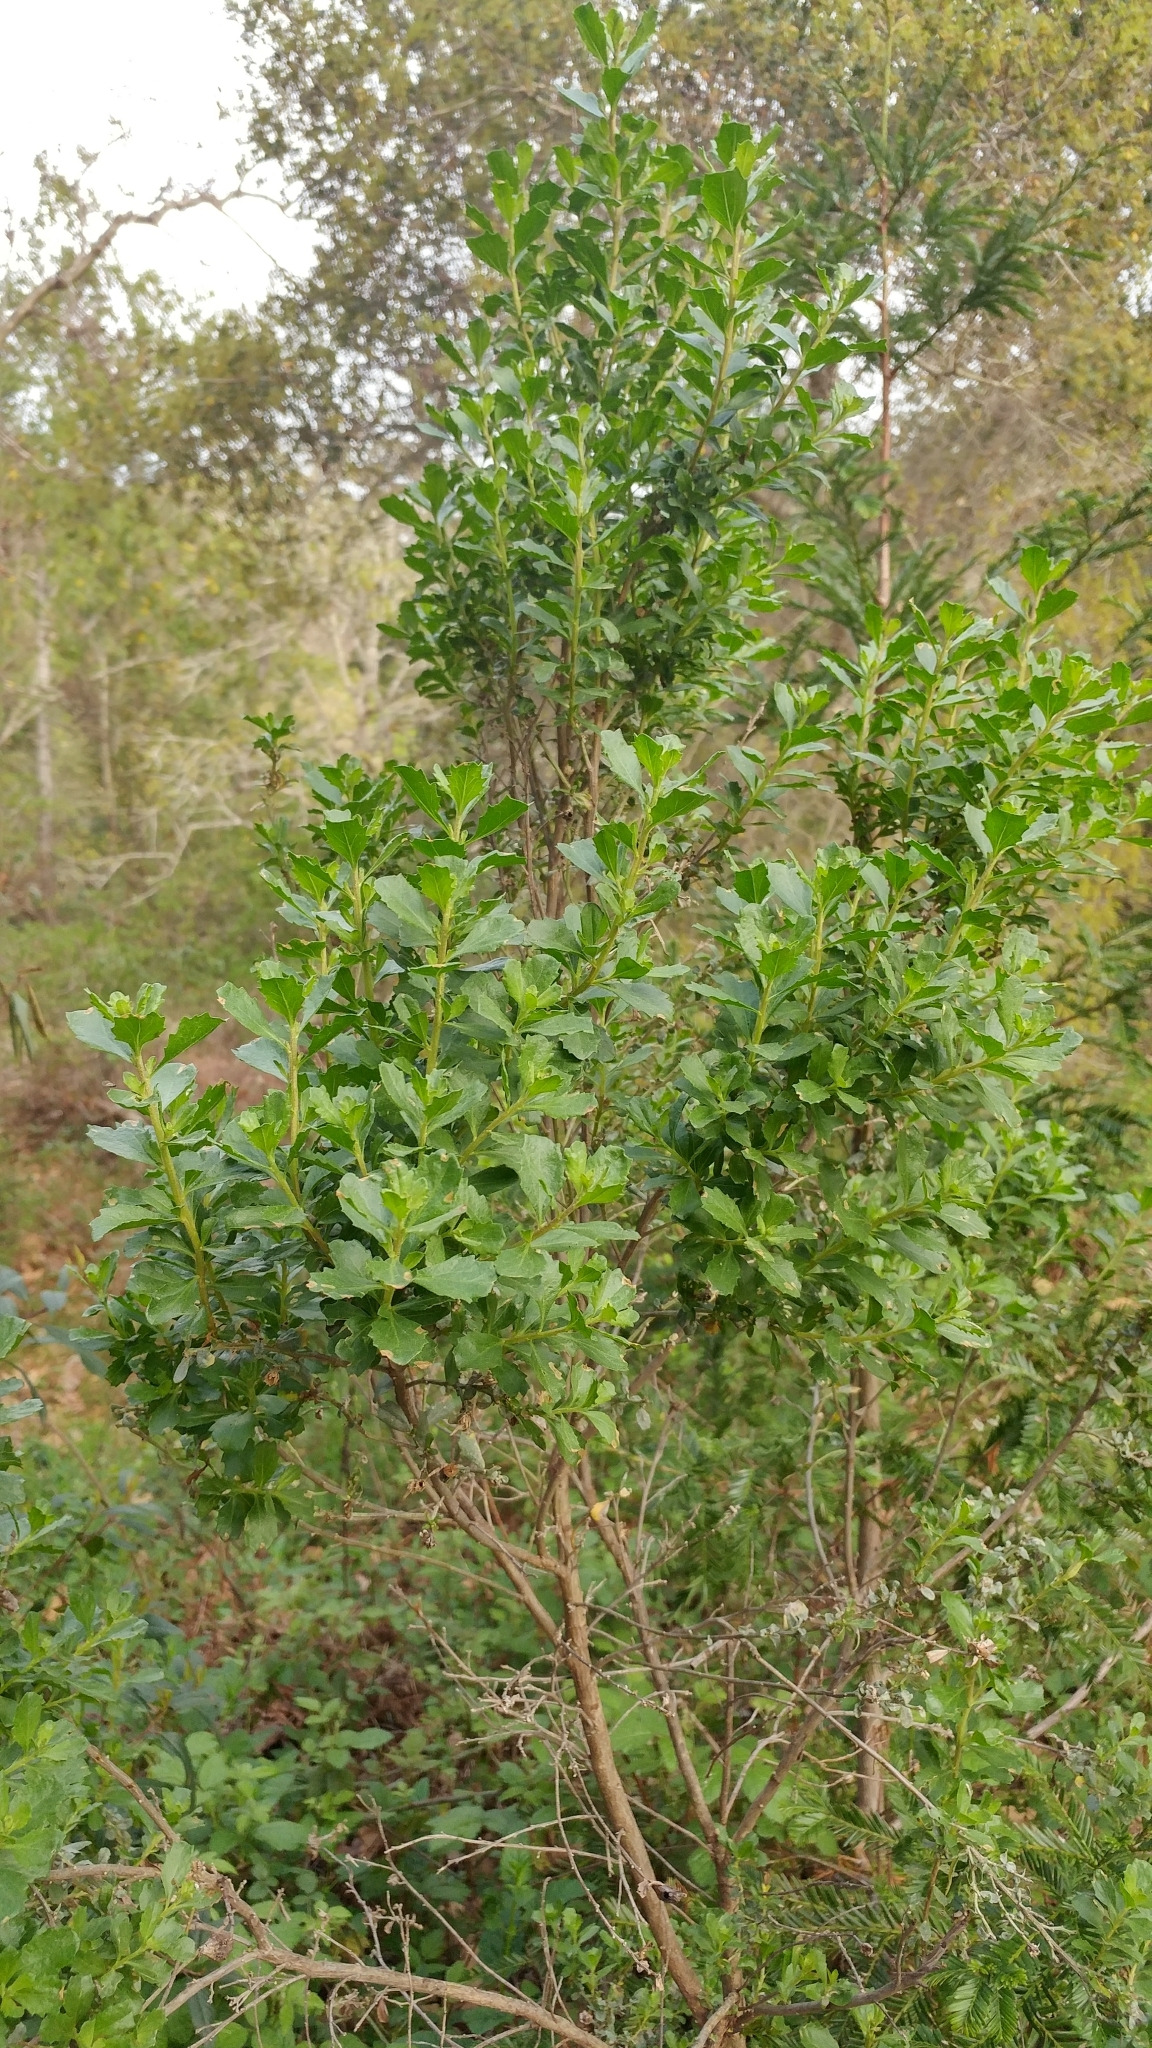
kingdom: Plantae
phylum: Tracheophyta
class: Magnoliopsida
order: Asterales
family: Asteraceae
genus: Baccharis
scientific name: Baccharis pilularis
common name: Coyotebrush
